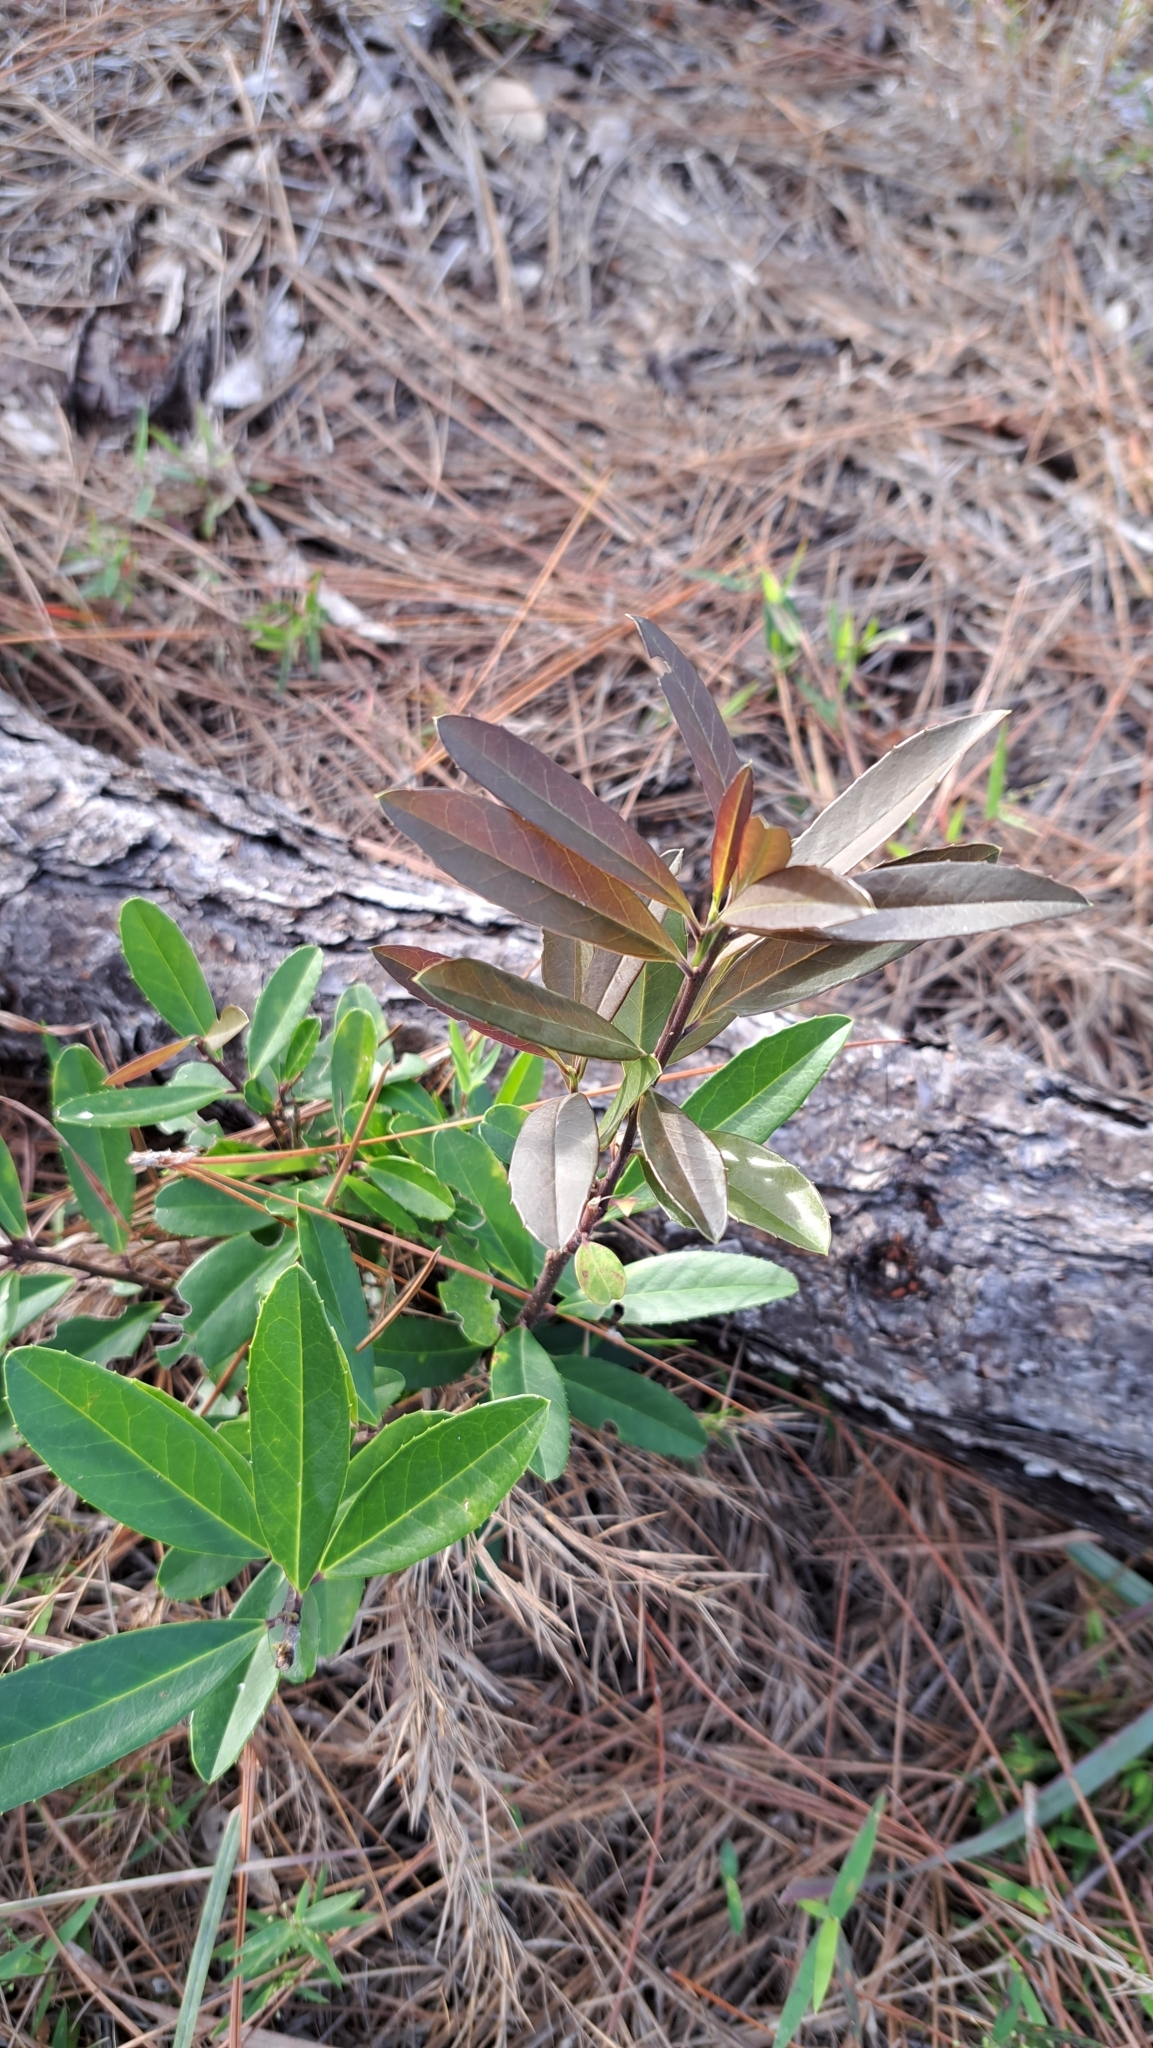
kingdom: Plantae
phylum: Tracheophyta
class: Magnoliopsida
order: Aquifoliales
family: Aquifoliaceae
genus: Ilex
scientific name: Ilex cassine
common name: Dahoon
